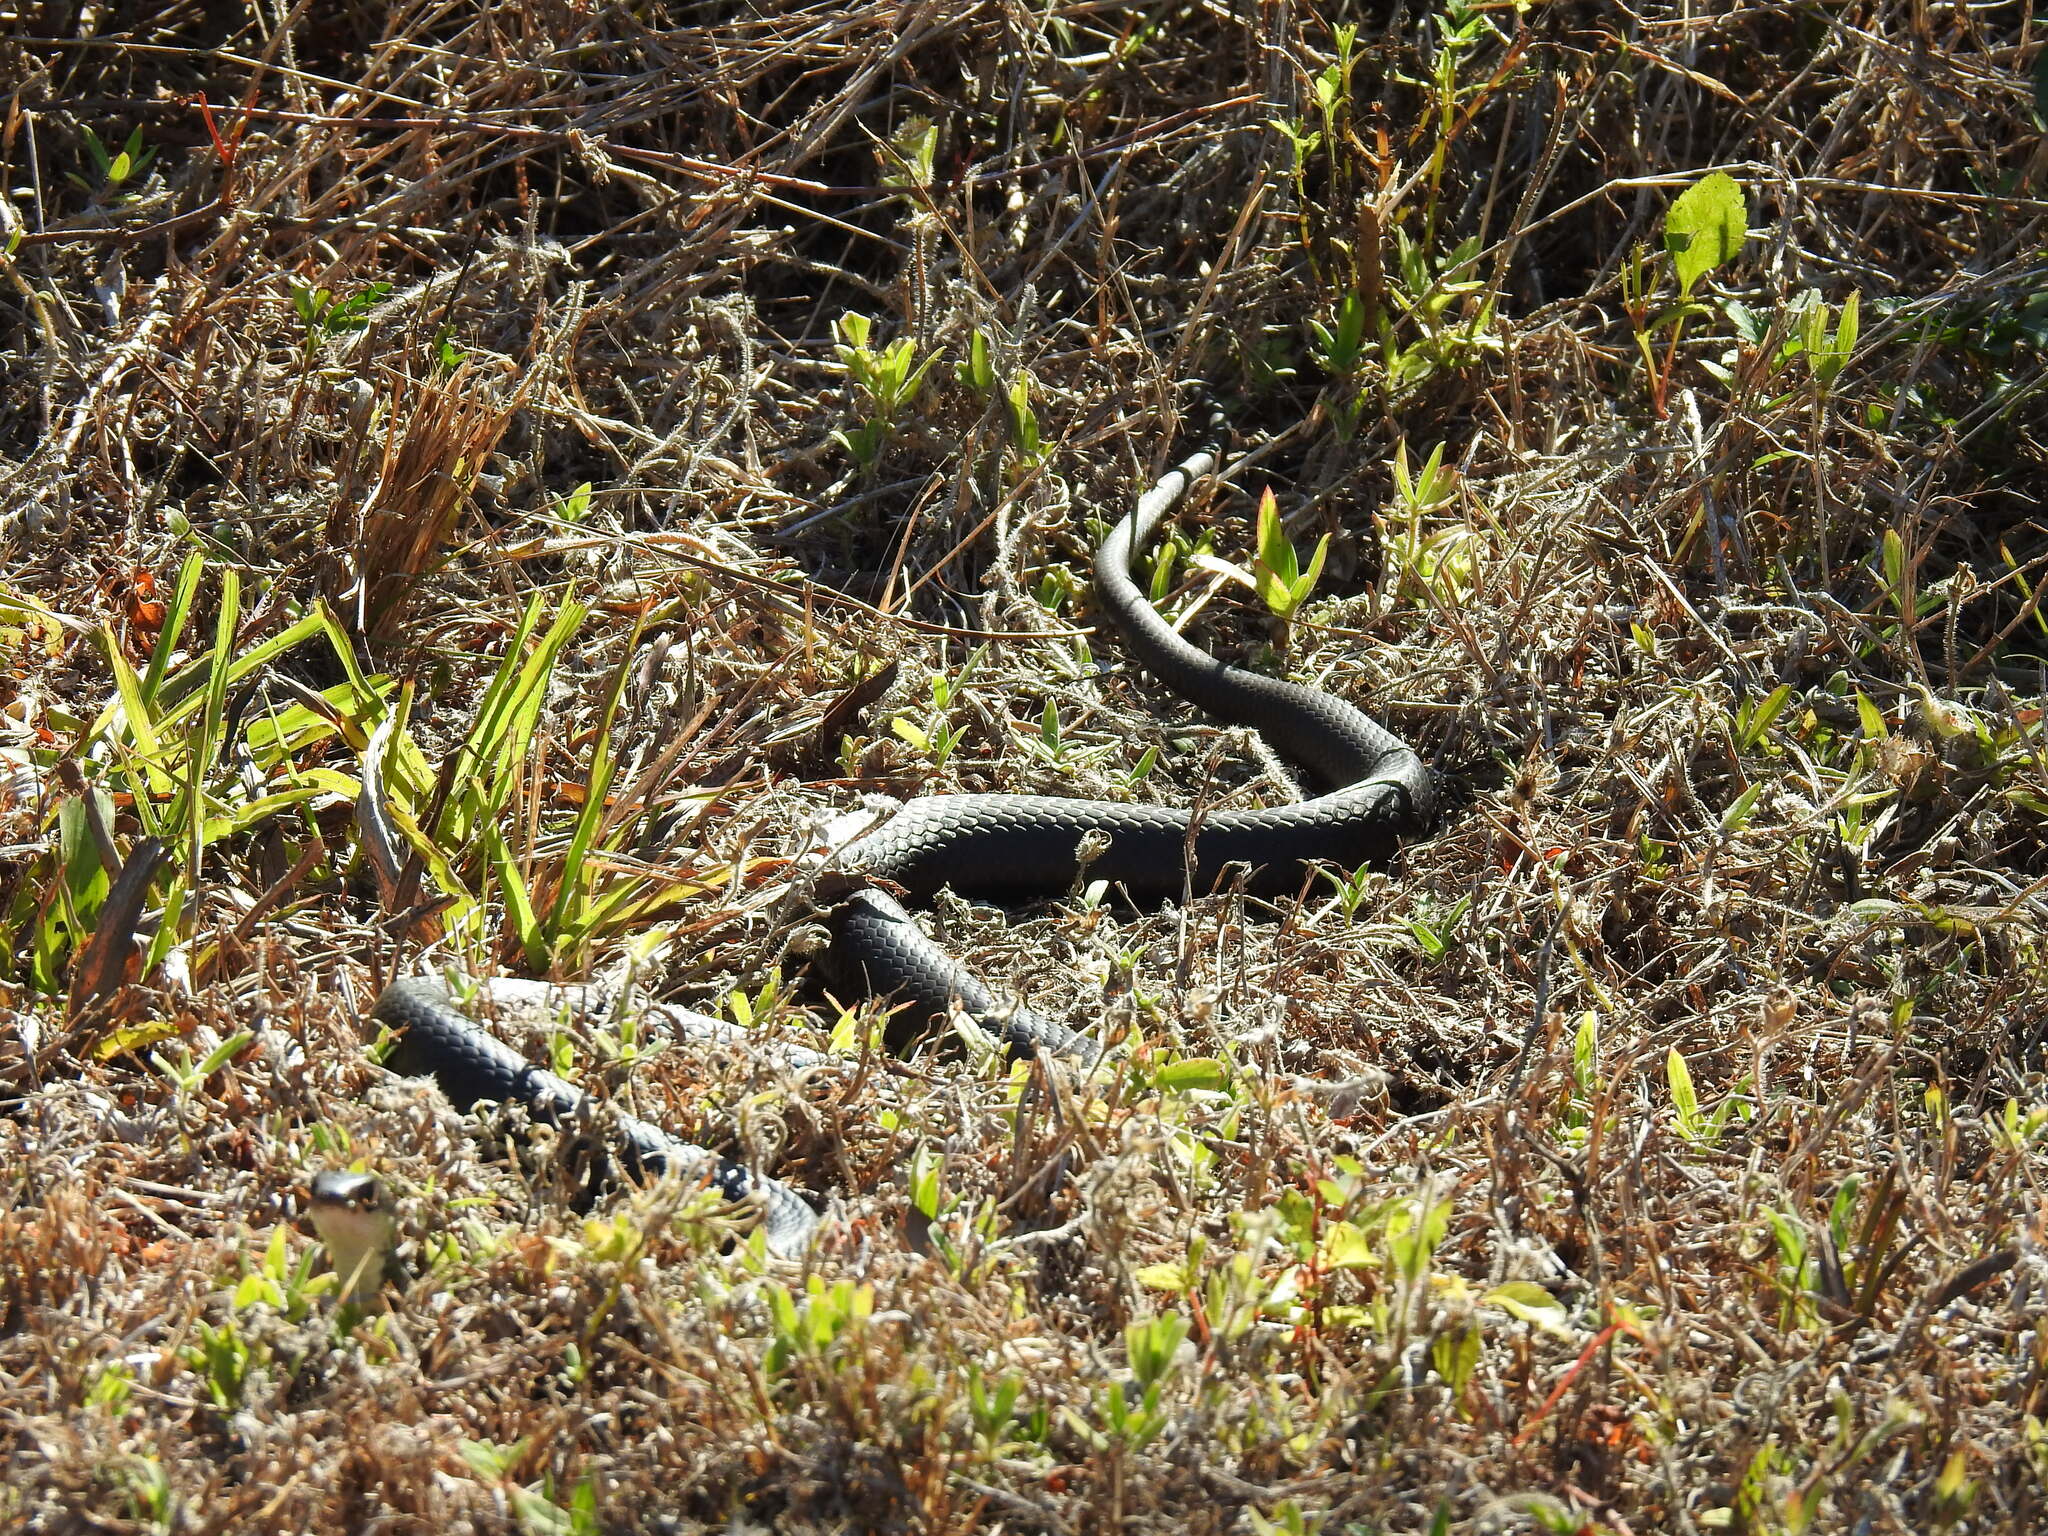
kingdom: Animalia
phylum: Chordata
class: Squamata
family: Colubridae
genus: Coluber
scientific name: Coluber constrictor
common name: Eastern racer
